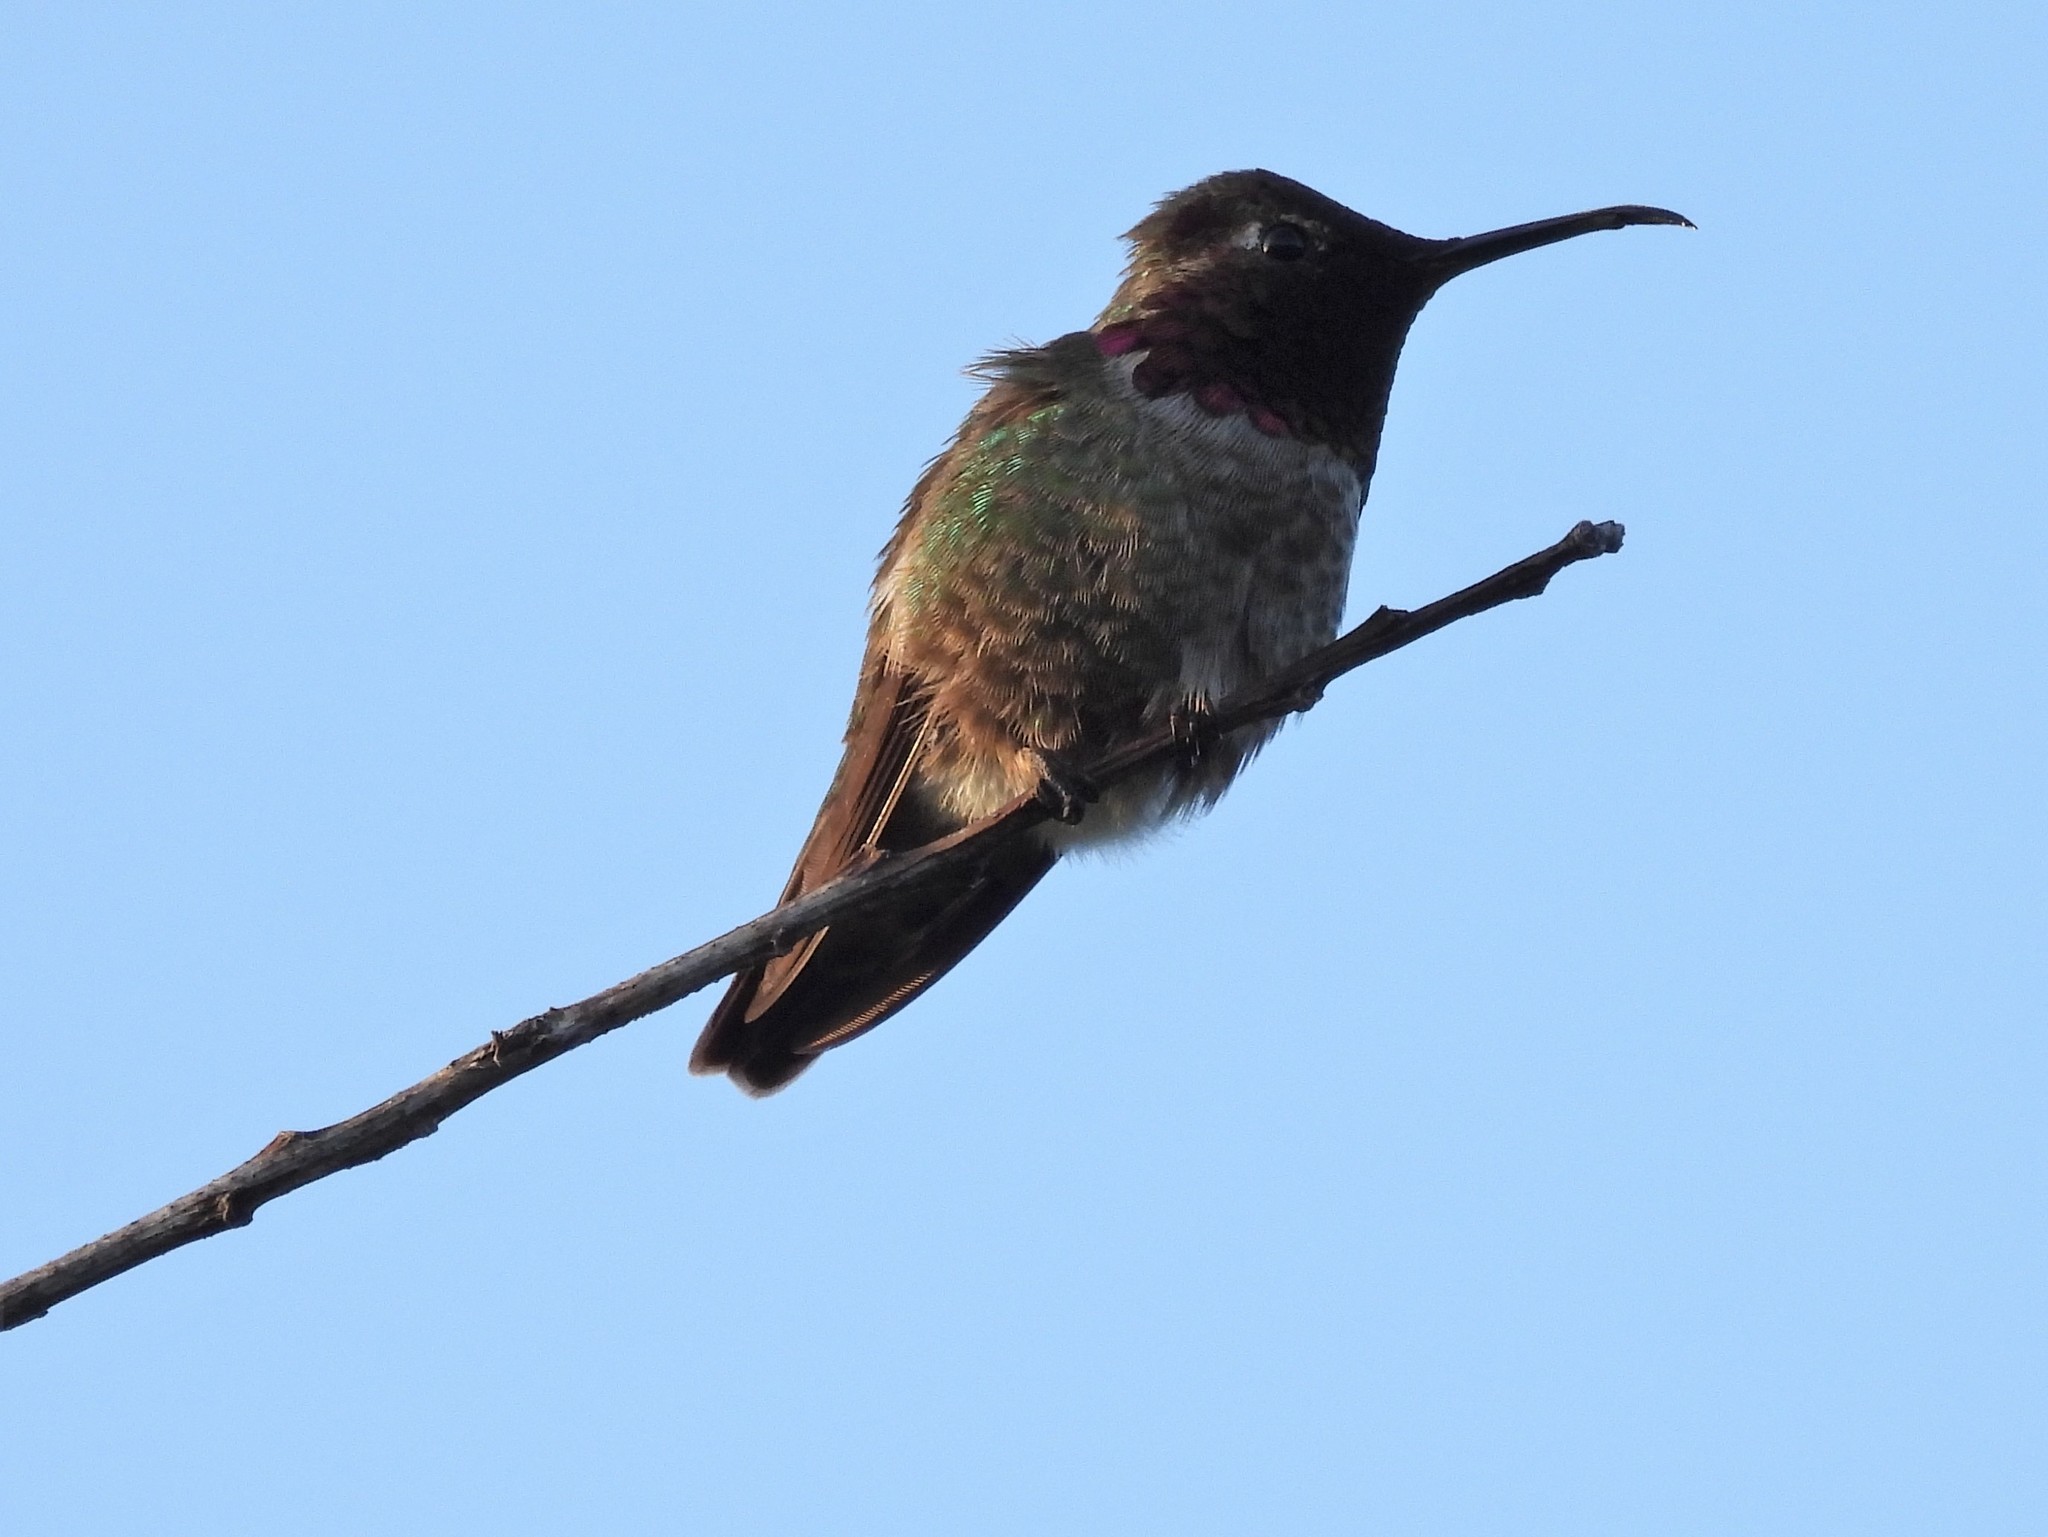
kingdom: Animalia
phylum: Chordata
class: Aves
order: Apodiformes
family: Trochilidae
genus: Calypte
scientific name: Calypte anna
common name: Anna's hummingbird
